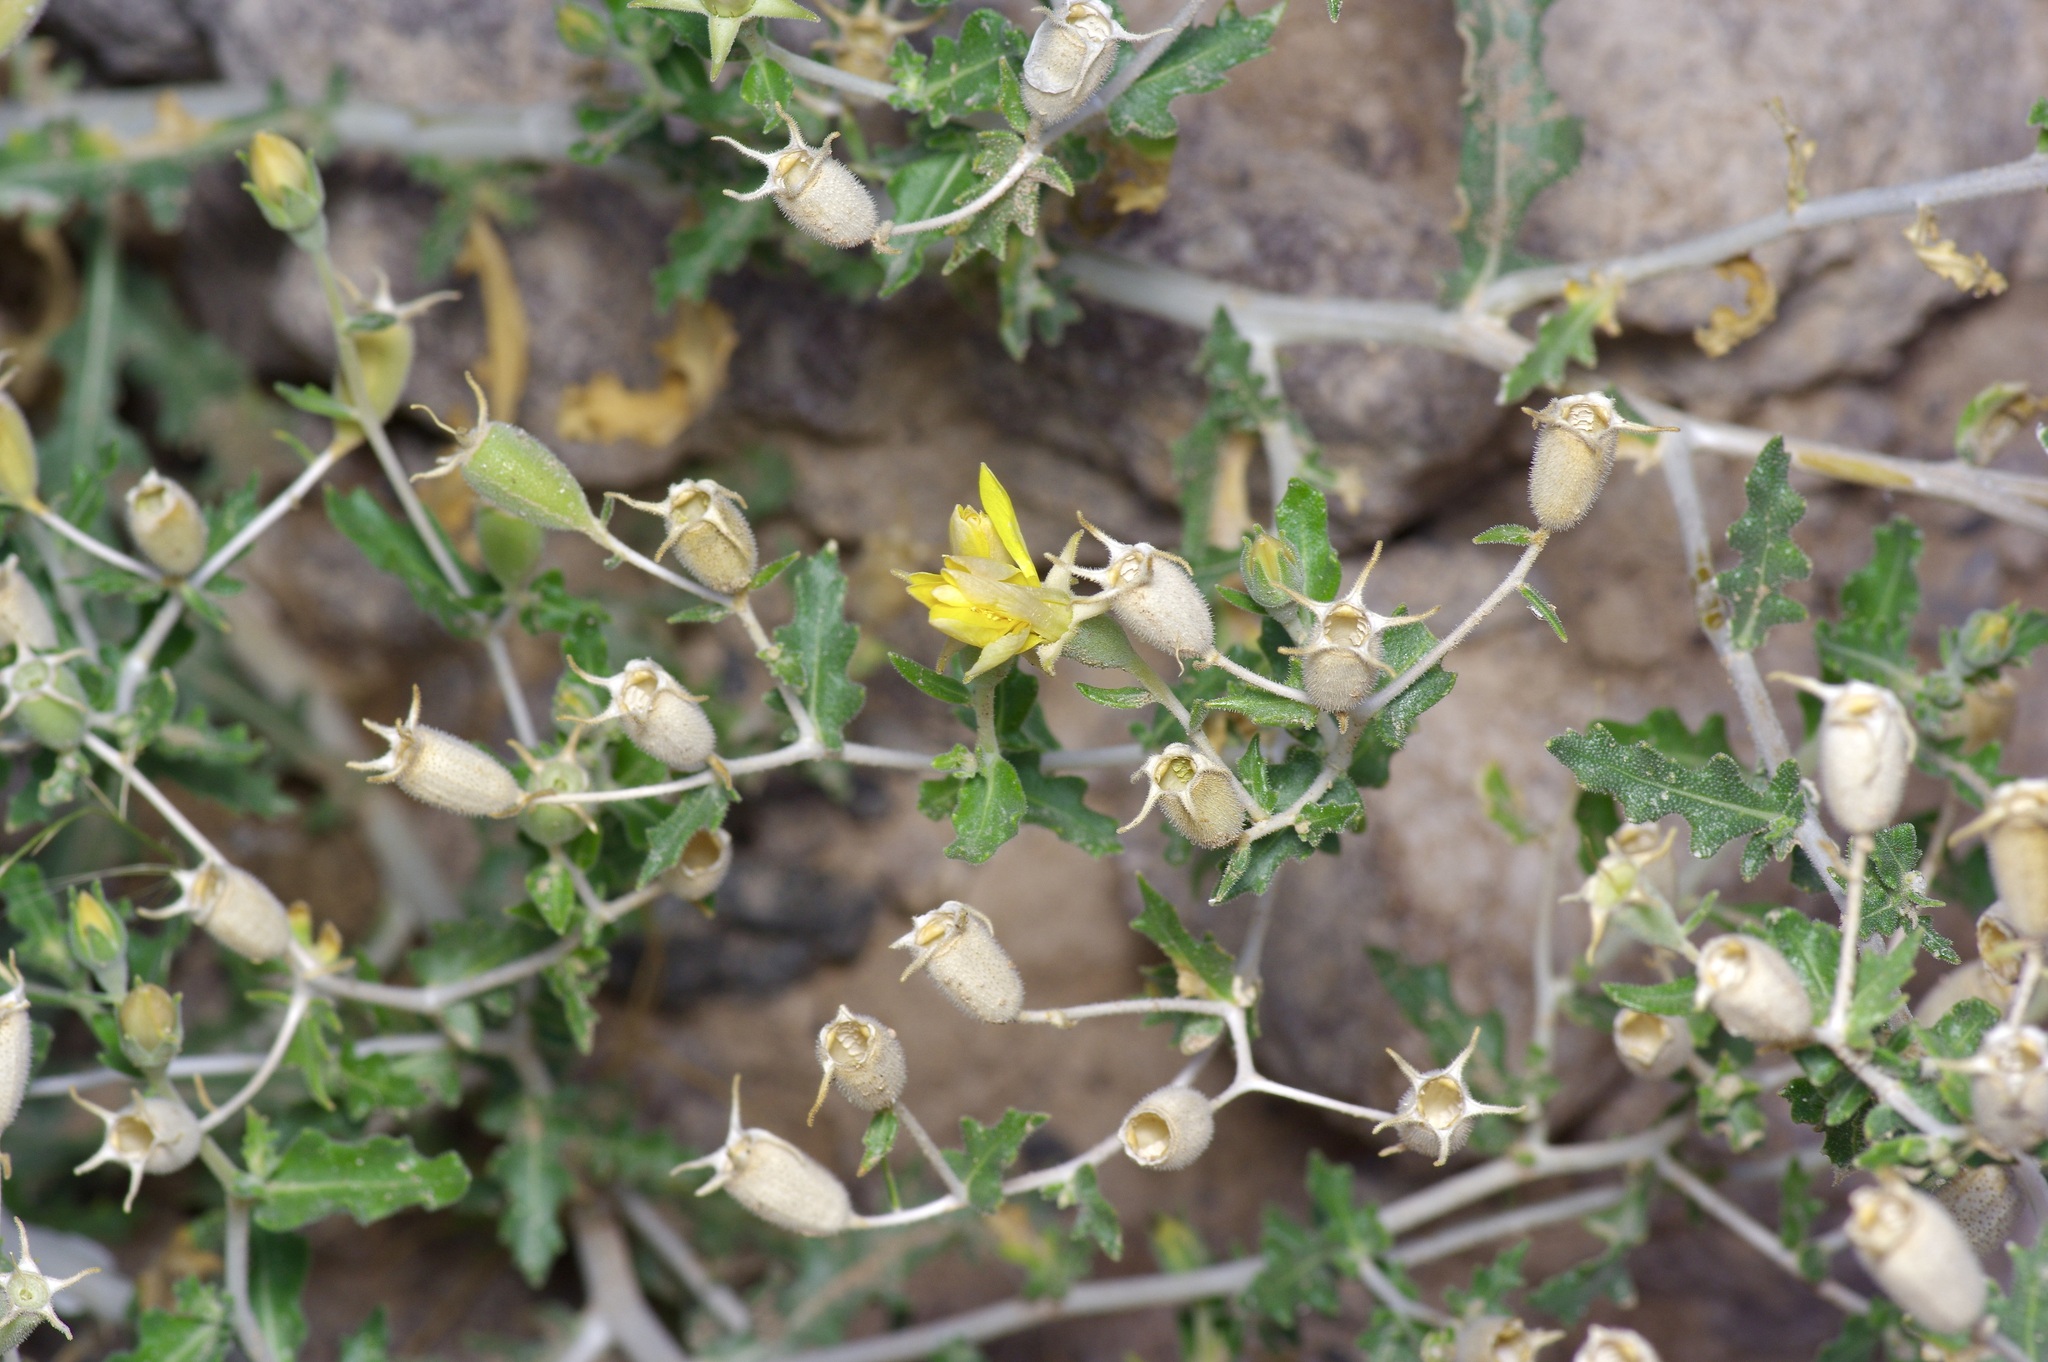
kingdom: Plantae
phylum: Tracheophyta
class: Magnoliopsida
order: Cornales
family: Loasaceae
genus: Mentzelia
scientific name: Mentzelia mexicana
